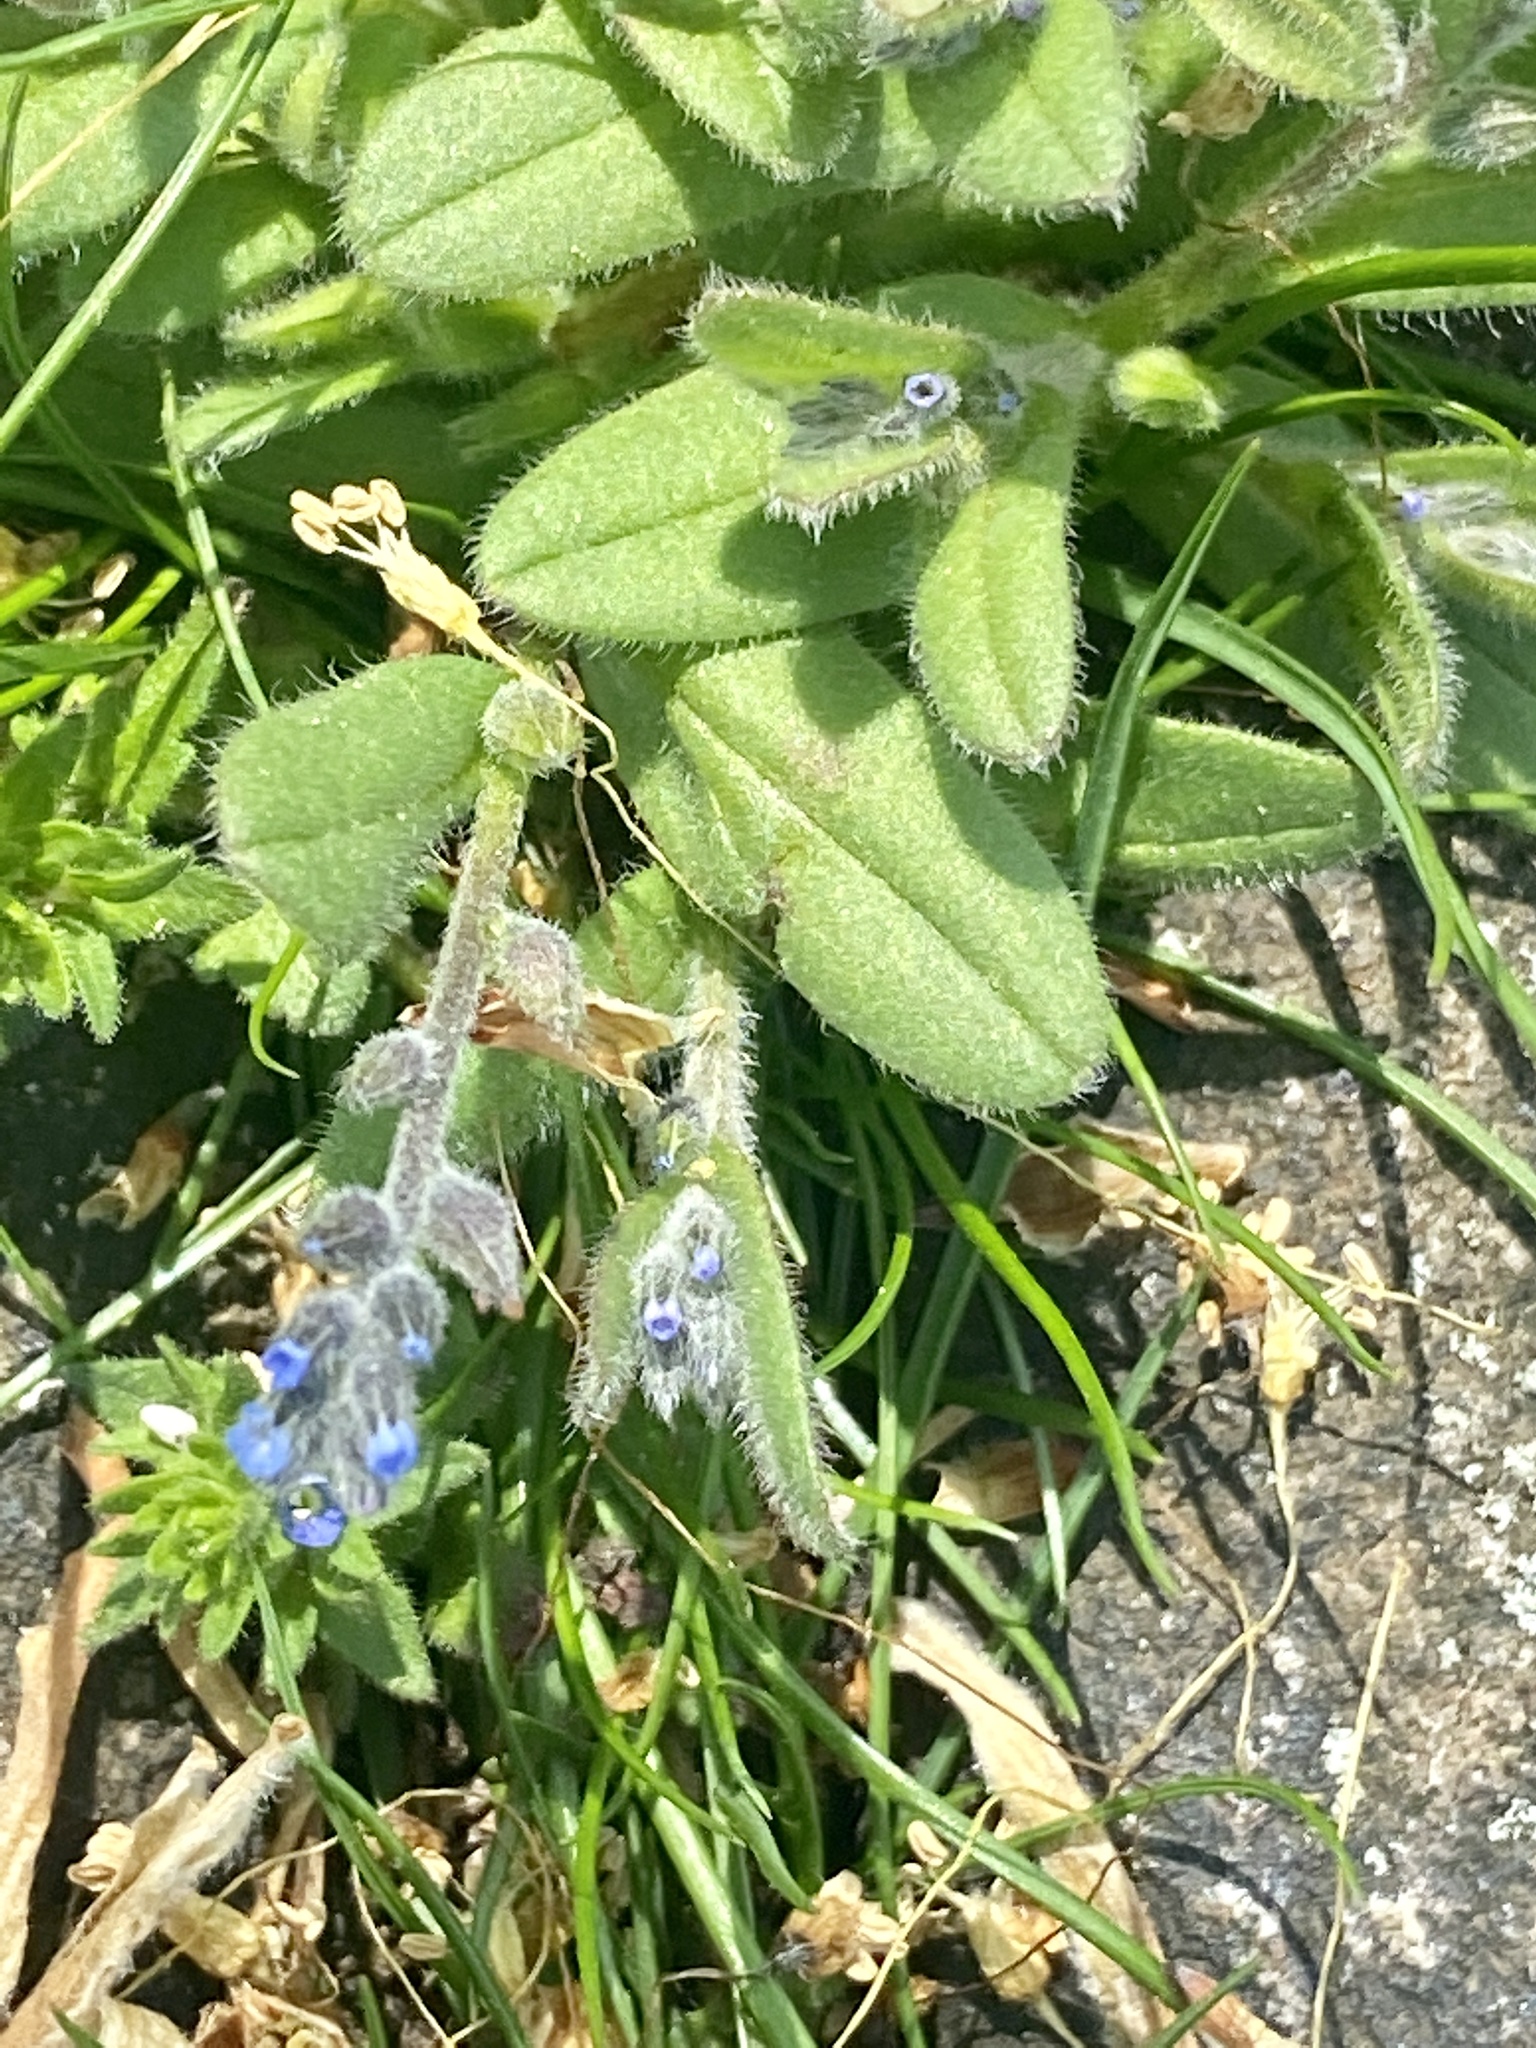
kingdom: Plantae
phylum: Tracheophyta
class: Magnoliopsida
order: Boraginales
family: Boraginaceae
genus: Myosotis
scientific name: Myosotis stricta
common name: Strict forget-me-not
